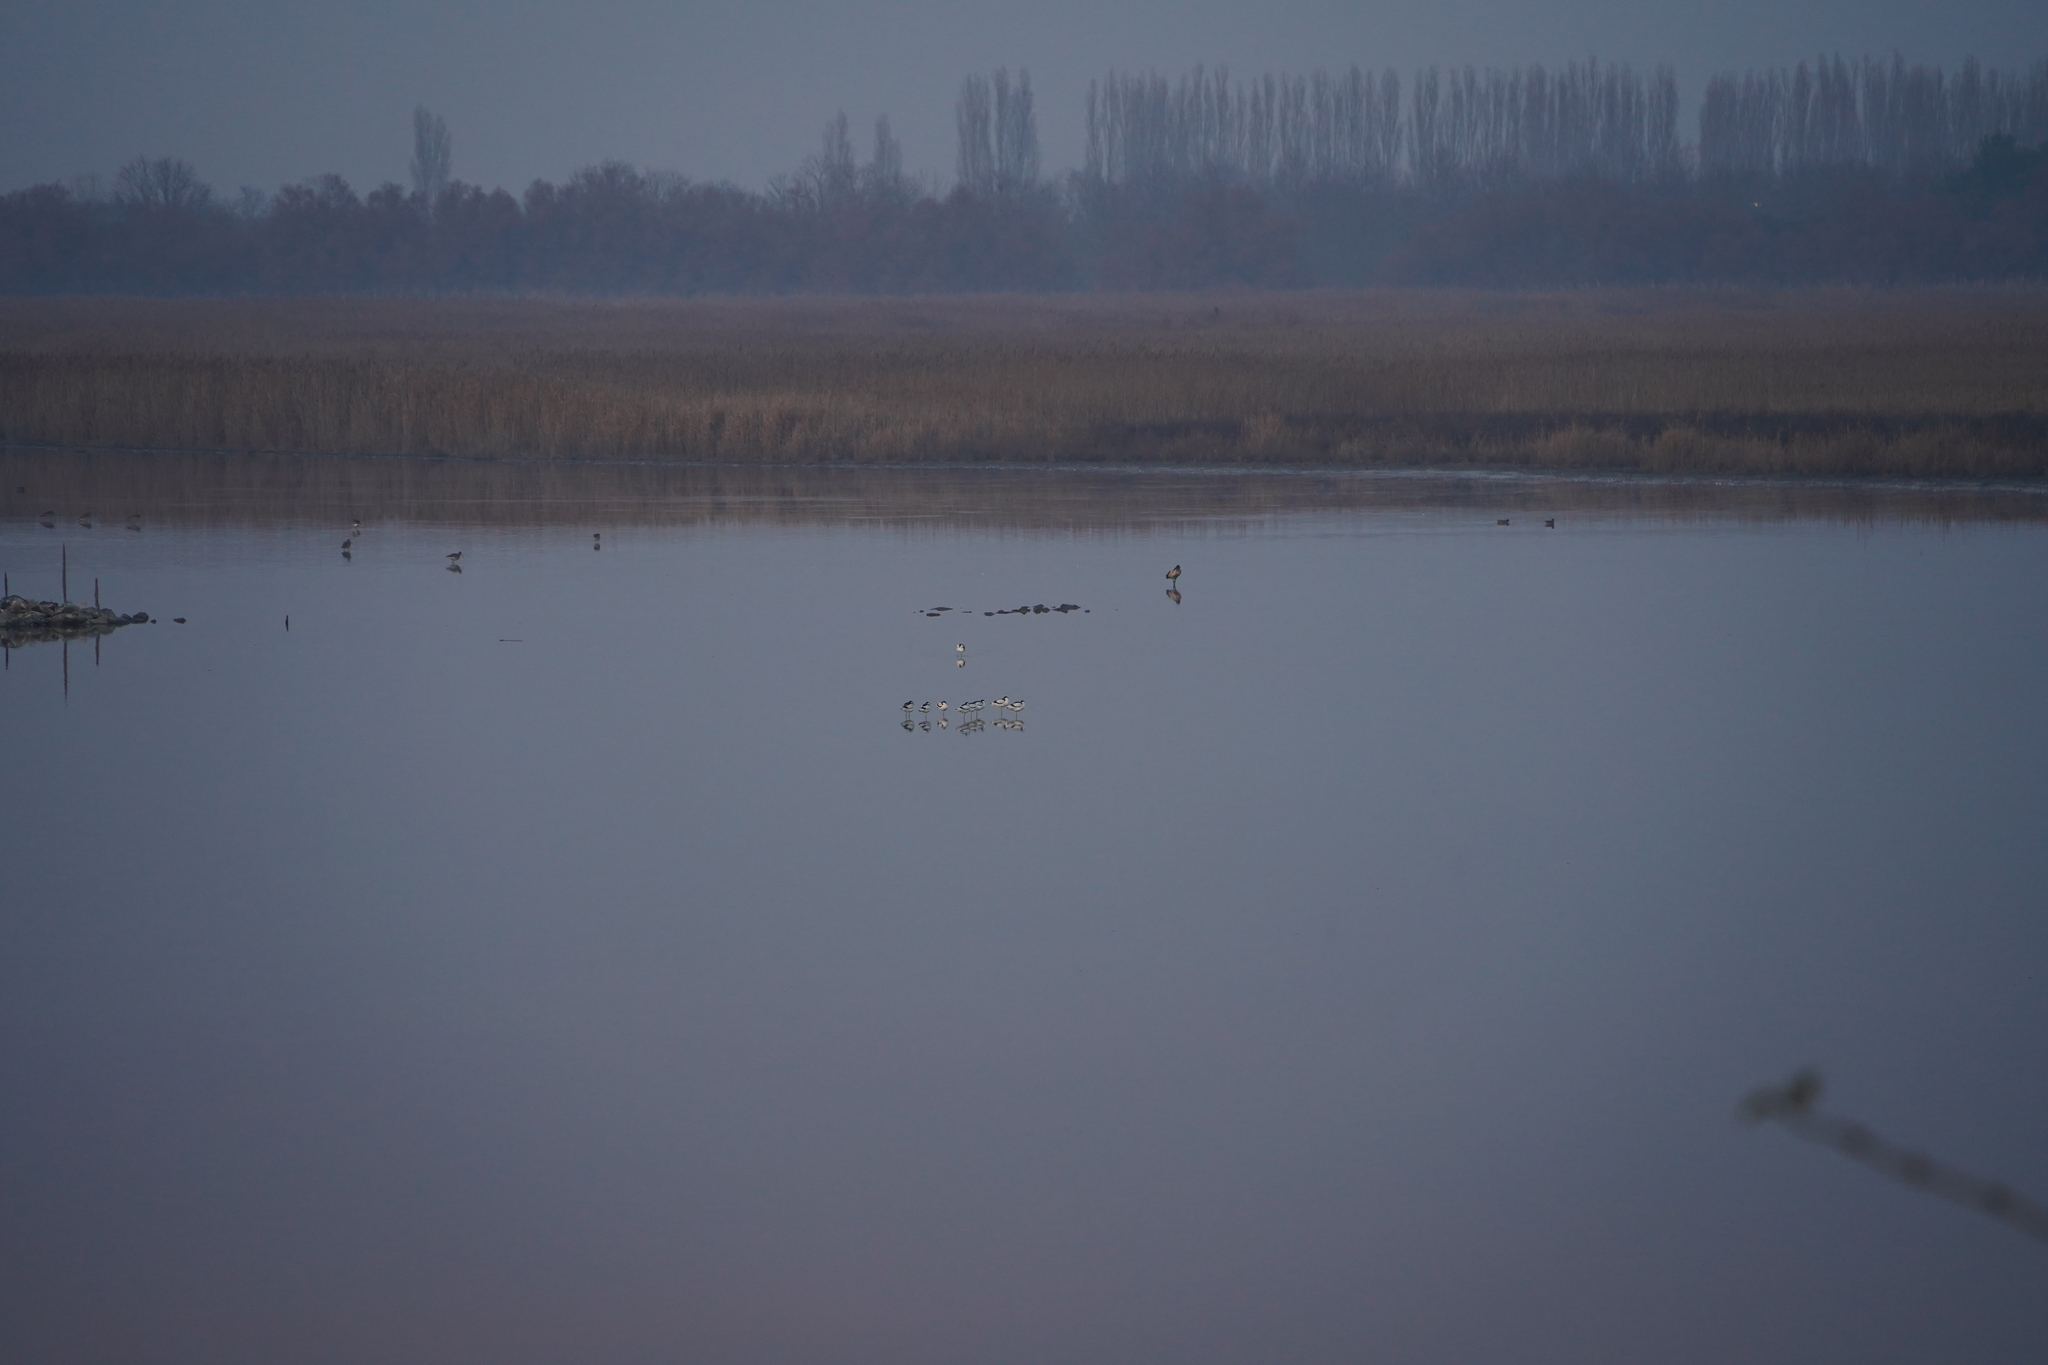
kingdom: Animalia
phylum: Chordata
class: Aves
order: Charadriiformes
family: Recurvirostridae
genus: Recurvirostra
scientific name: Recurvirostra avosetta
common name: Pied avocet
